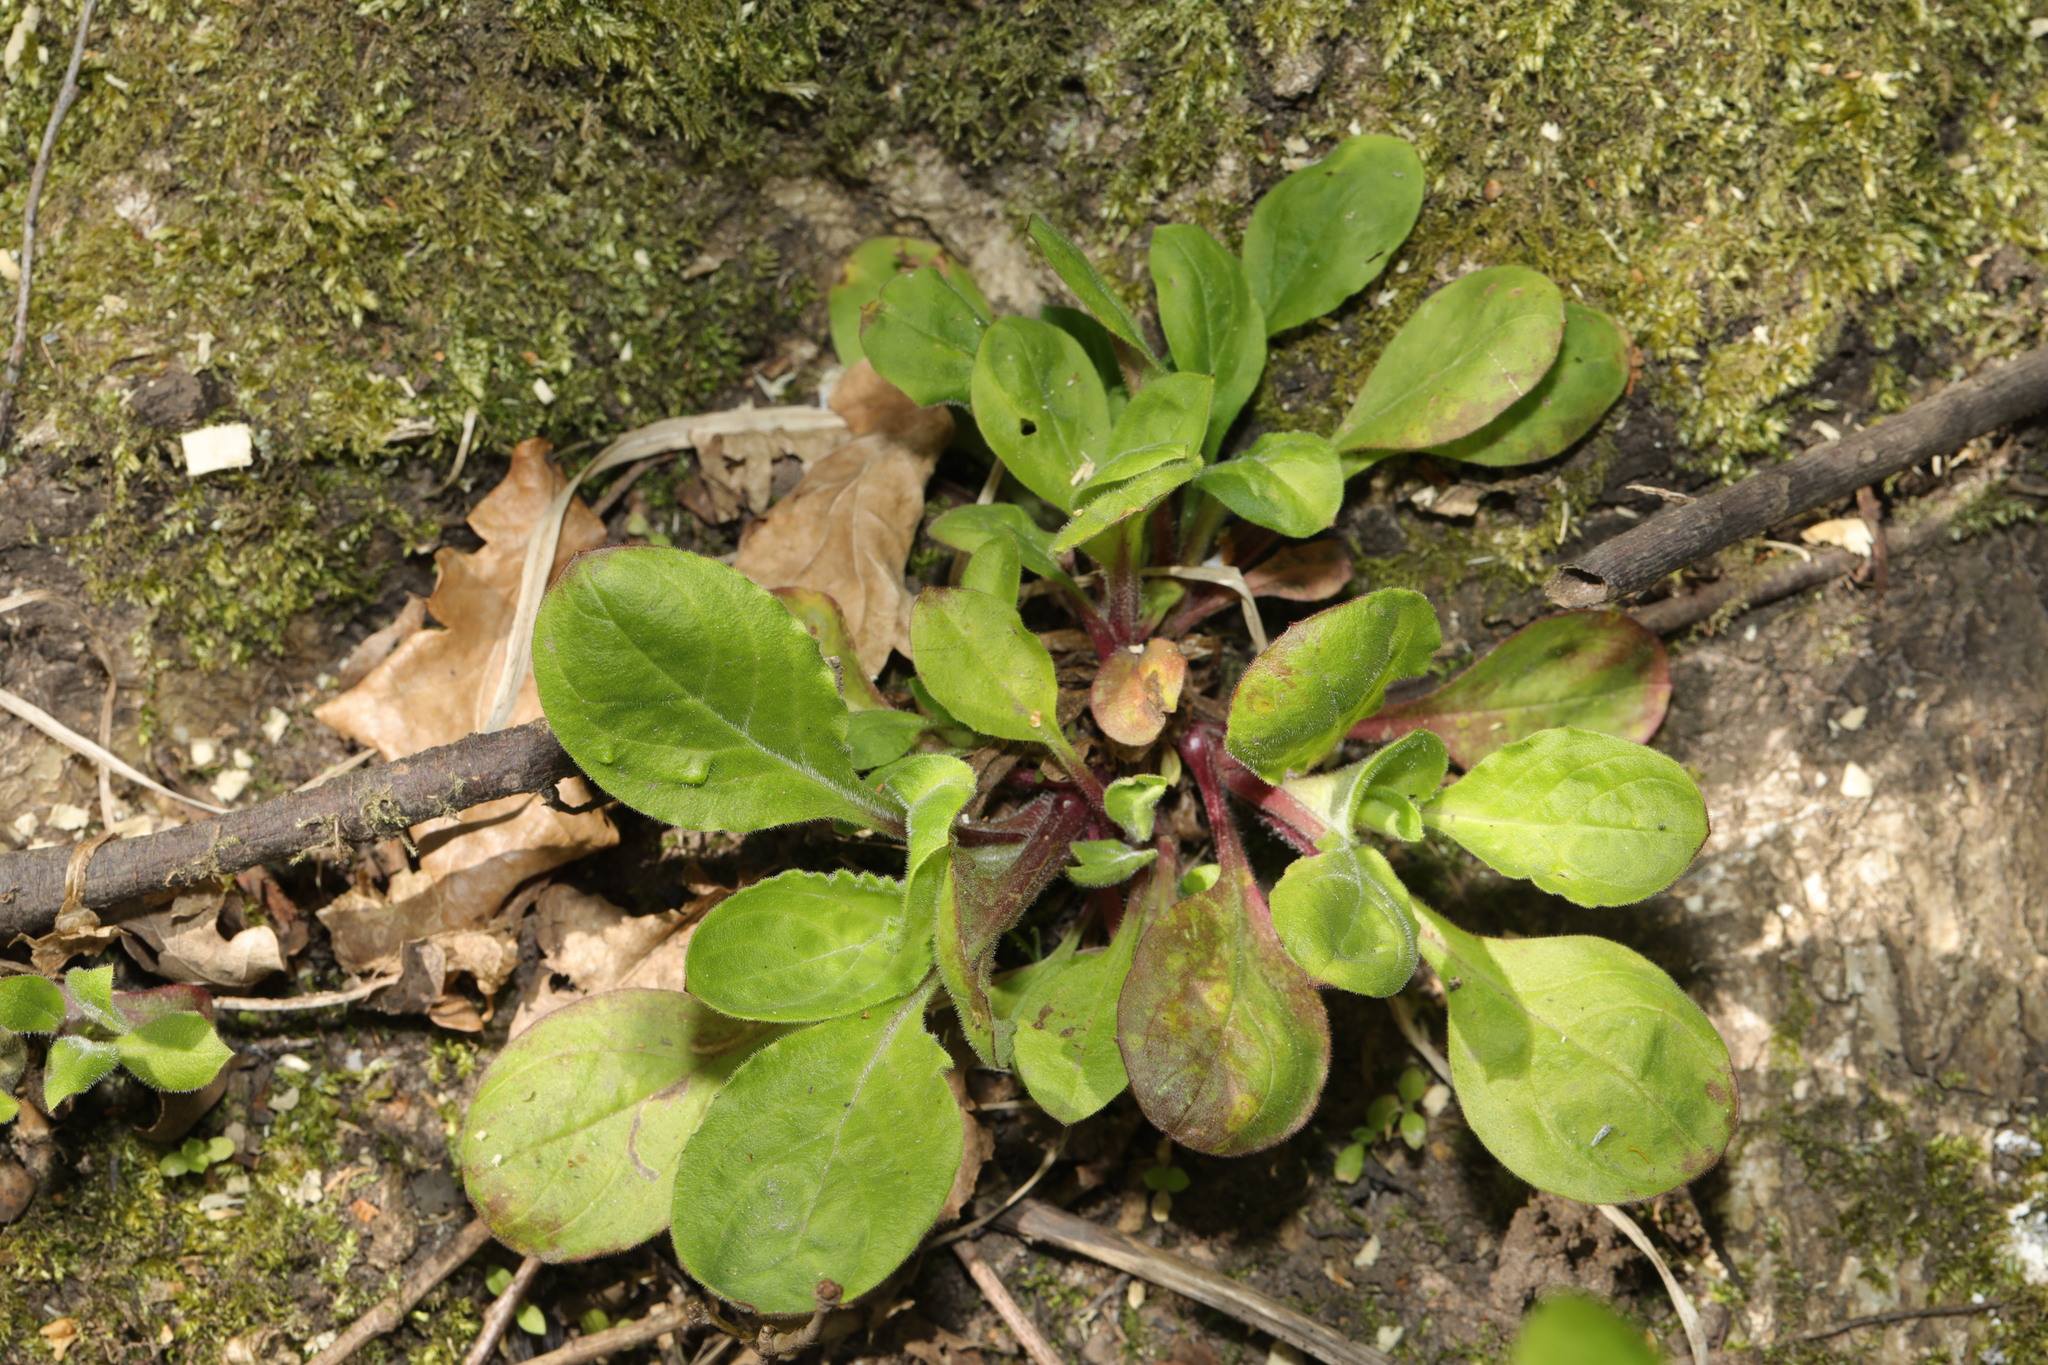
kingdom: Plantae
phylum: Tracheophyta
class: Magnoliopsida
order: Asterales
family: Asteraceae
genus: Bellis
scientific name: Bellis perennis
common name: Lawndaisy
